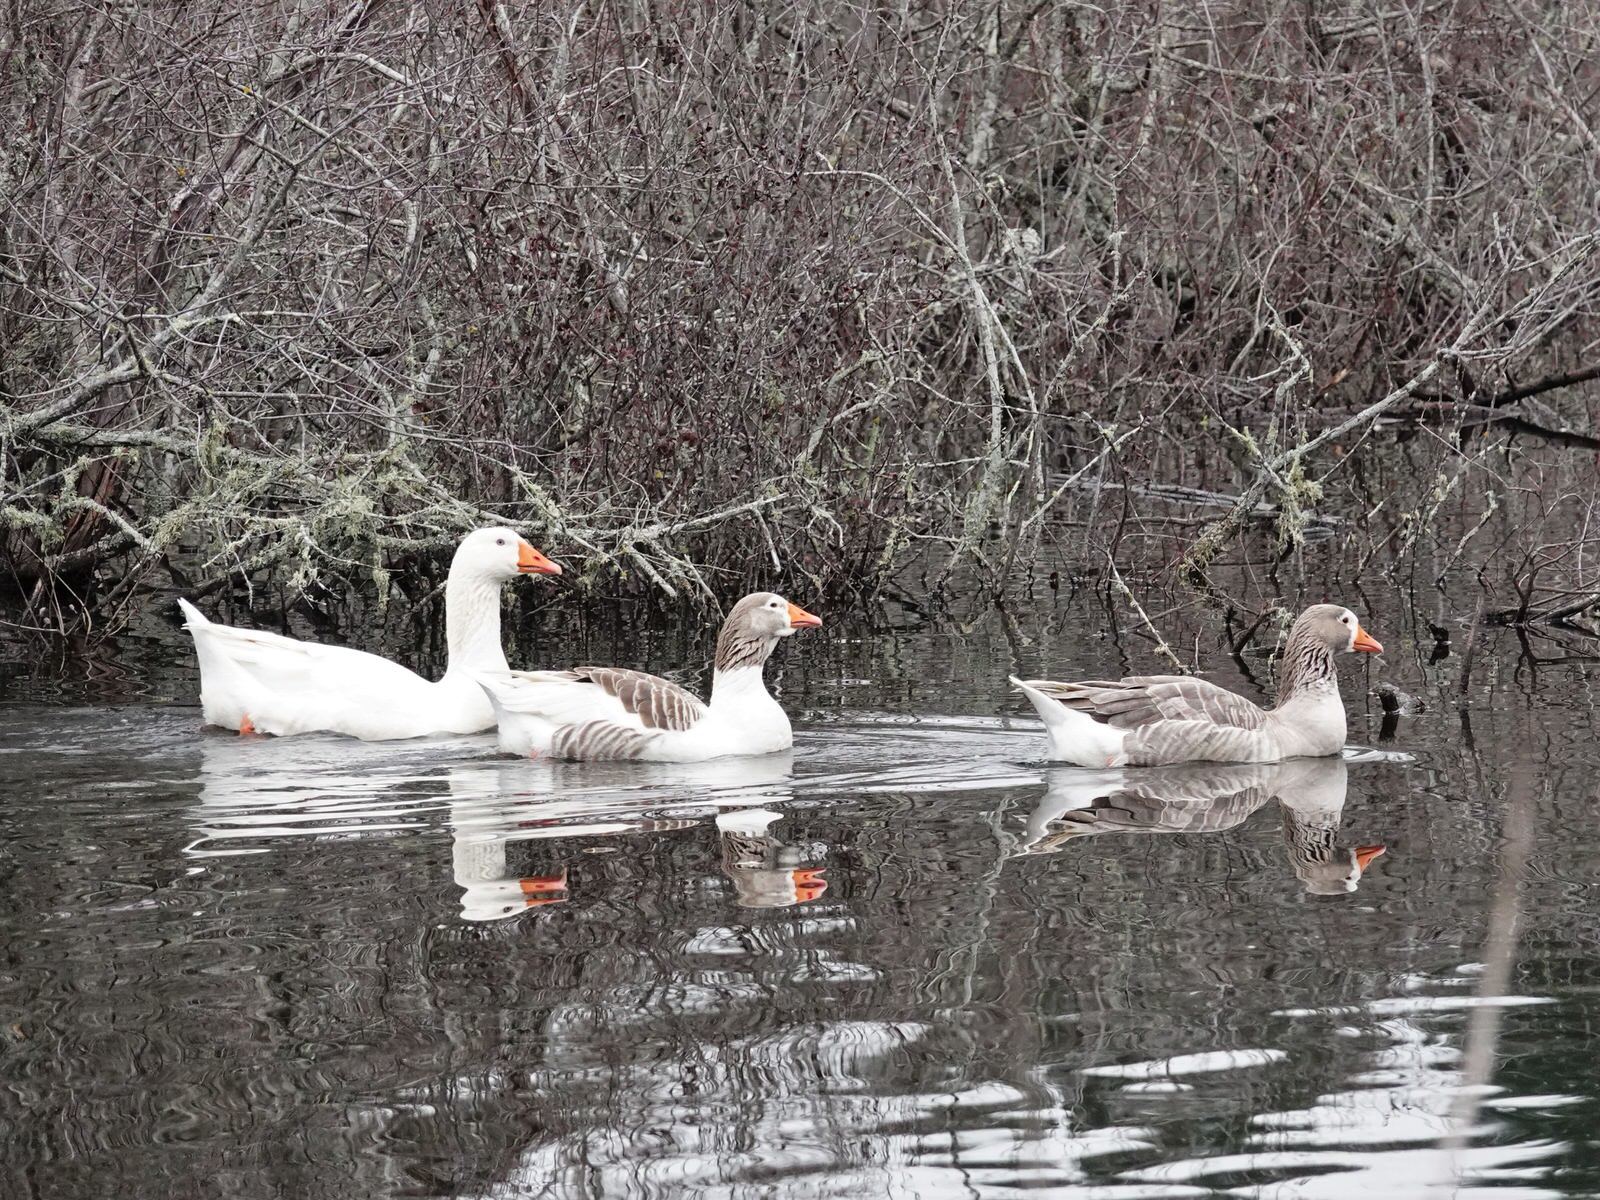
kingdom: Animalia
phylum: Chordata
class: Aves
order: Anseriformes
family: Anatidae
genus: Anser
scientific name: Anser anser
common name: Greylag goose
